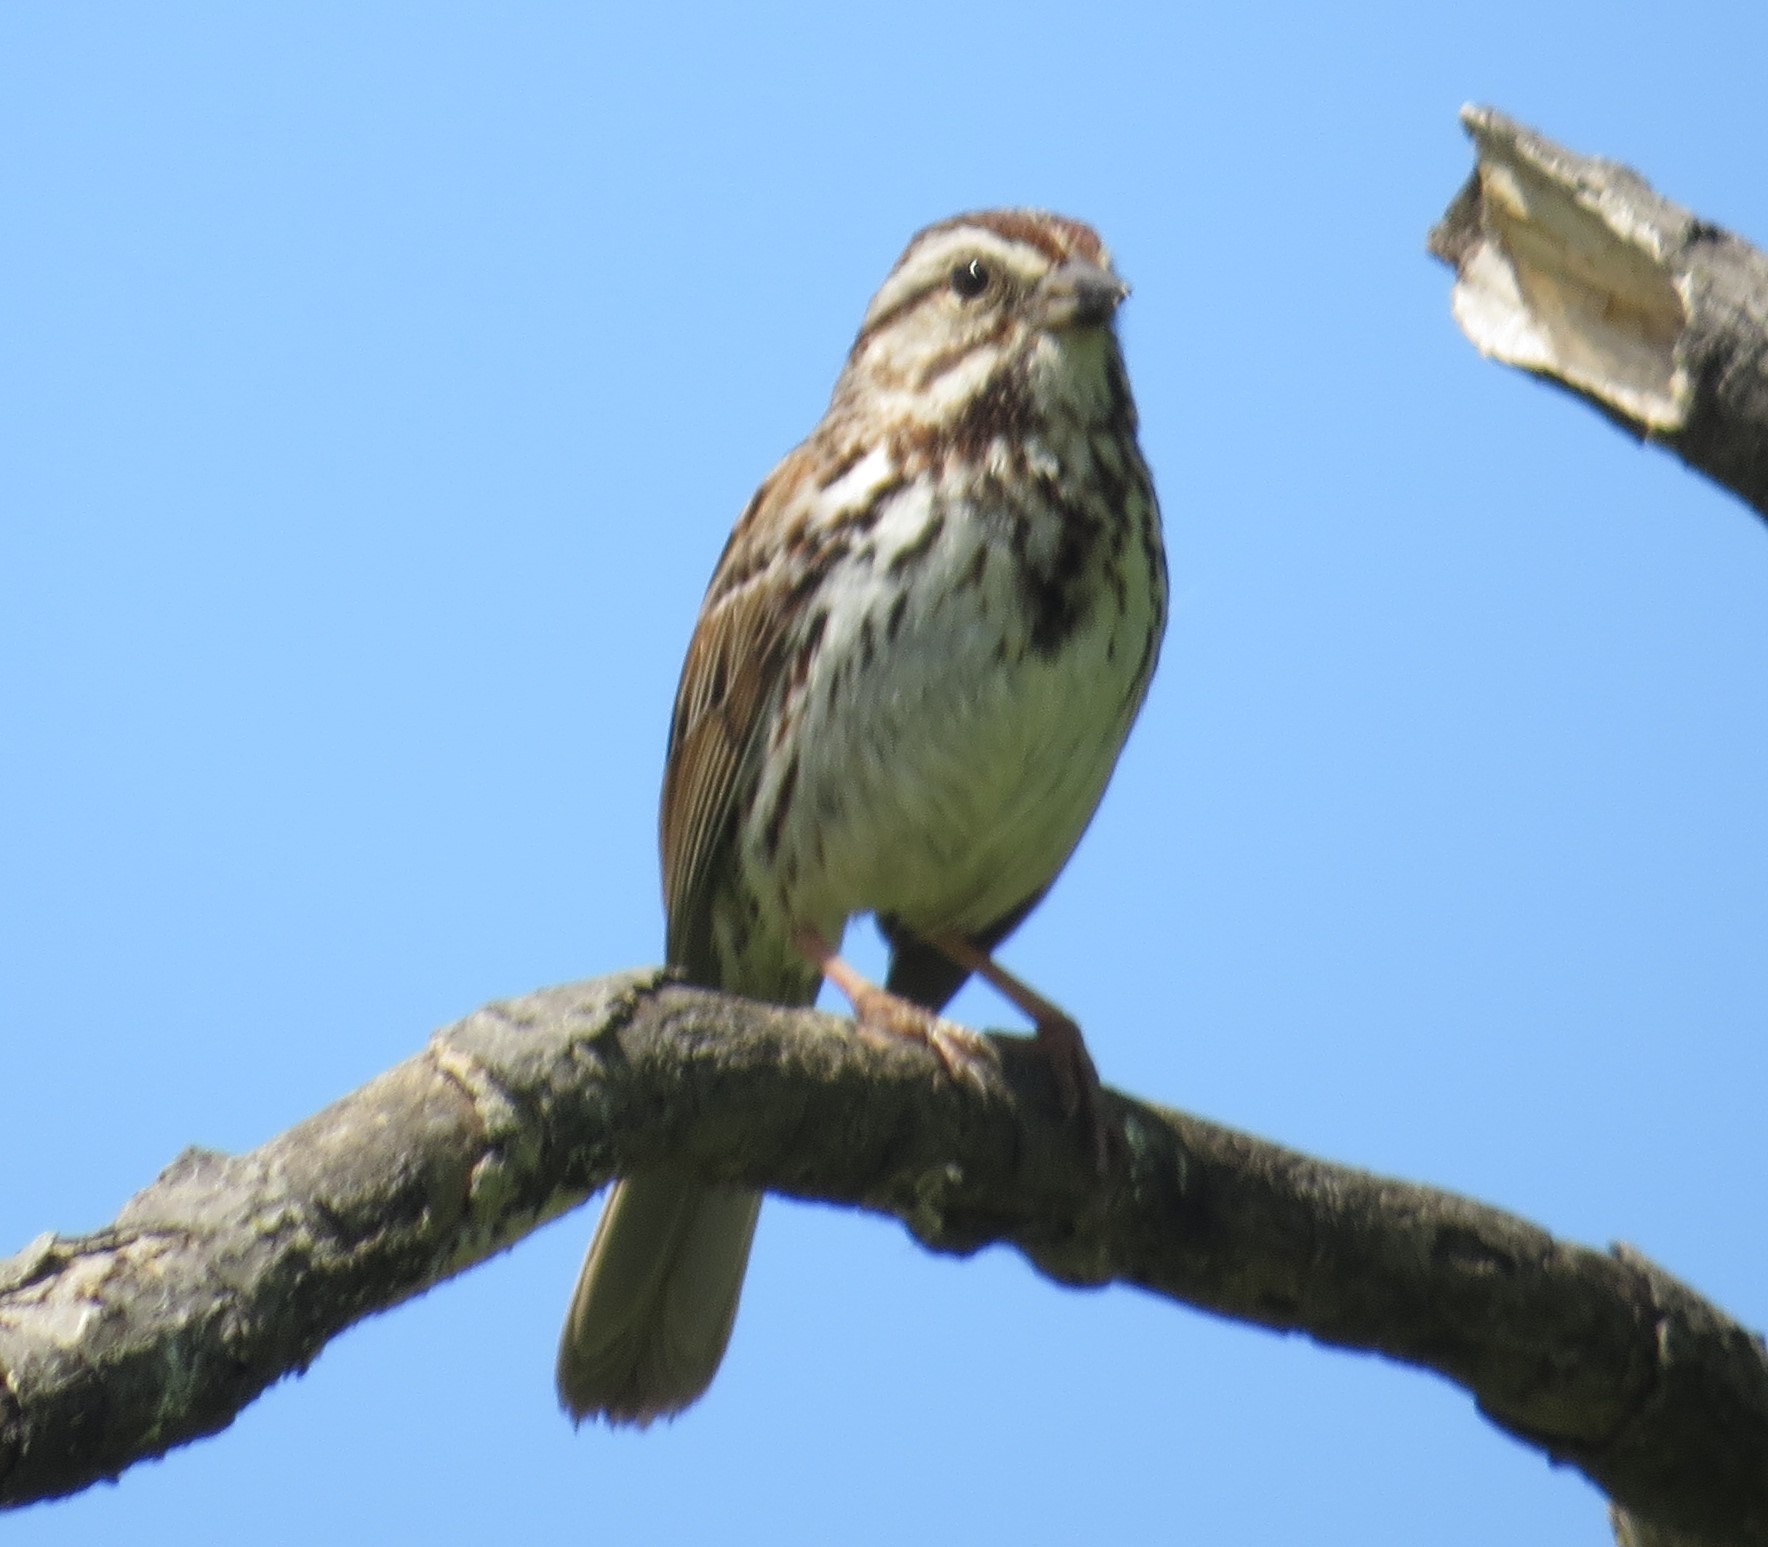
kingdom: Animalia
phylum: Chordata
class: Aves
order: Passeriformes
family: Passerellidae
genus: Melospiza
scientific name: Melospiza melodia
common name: Song sparrow
